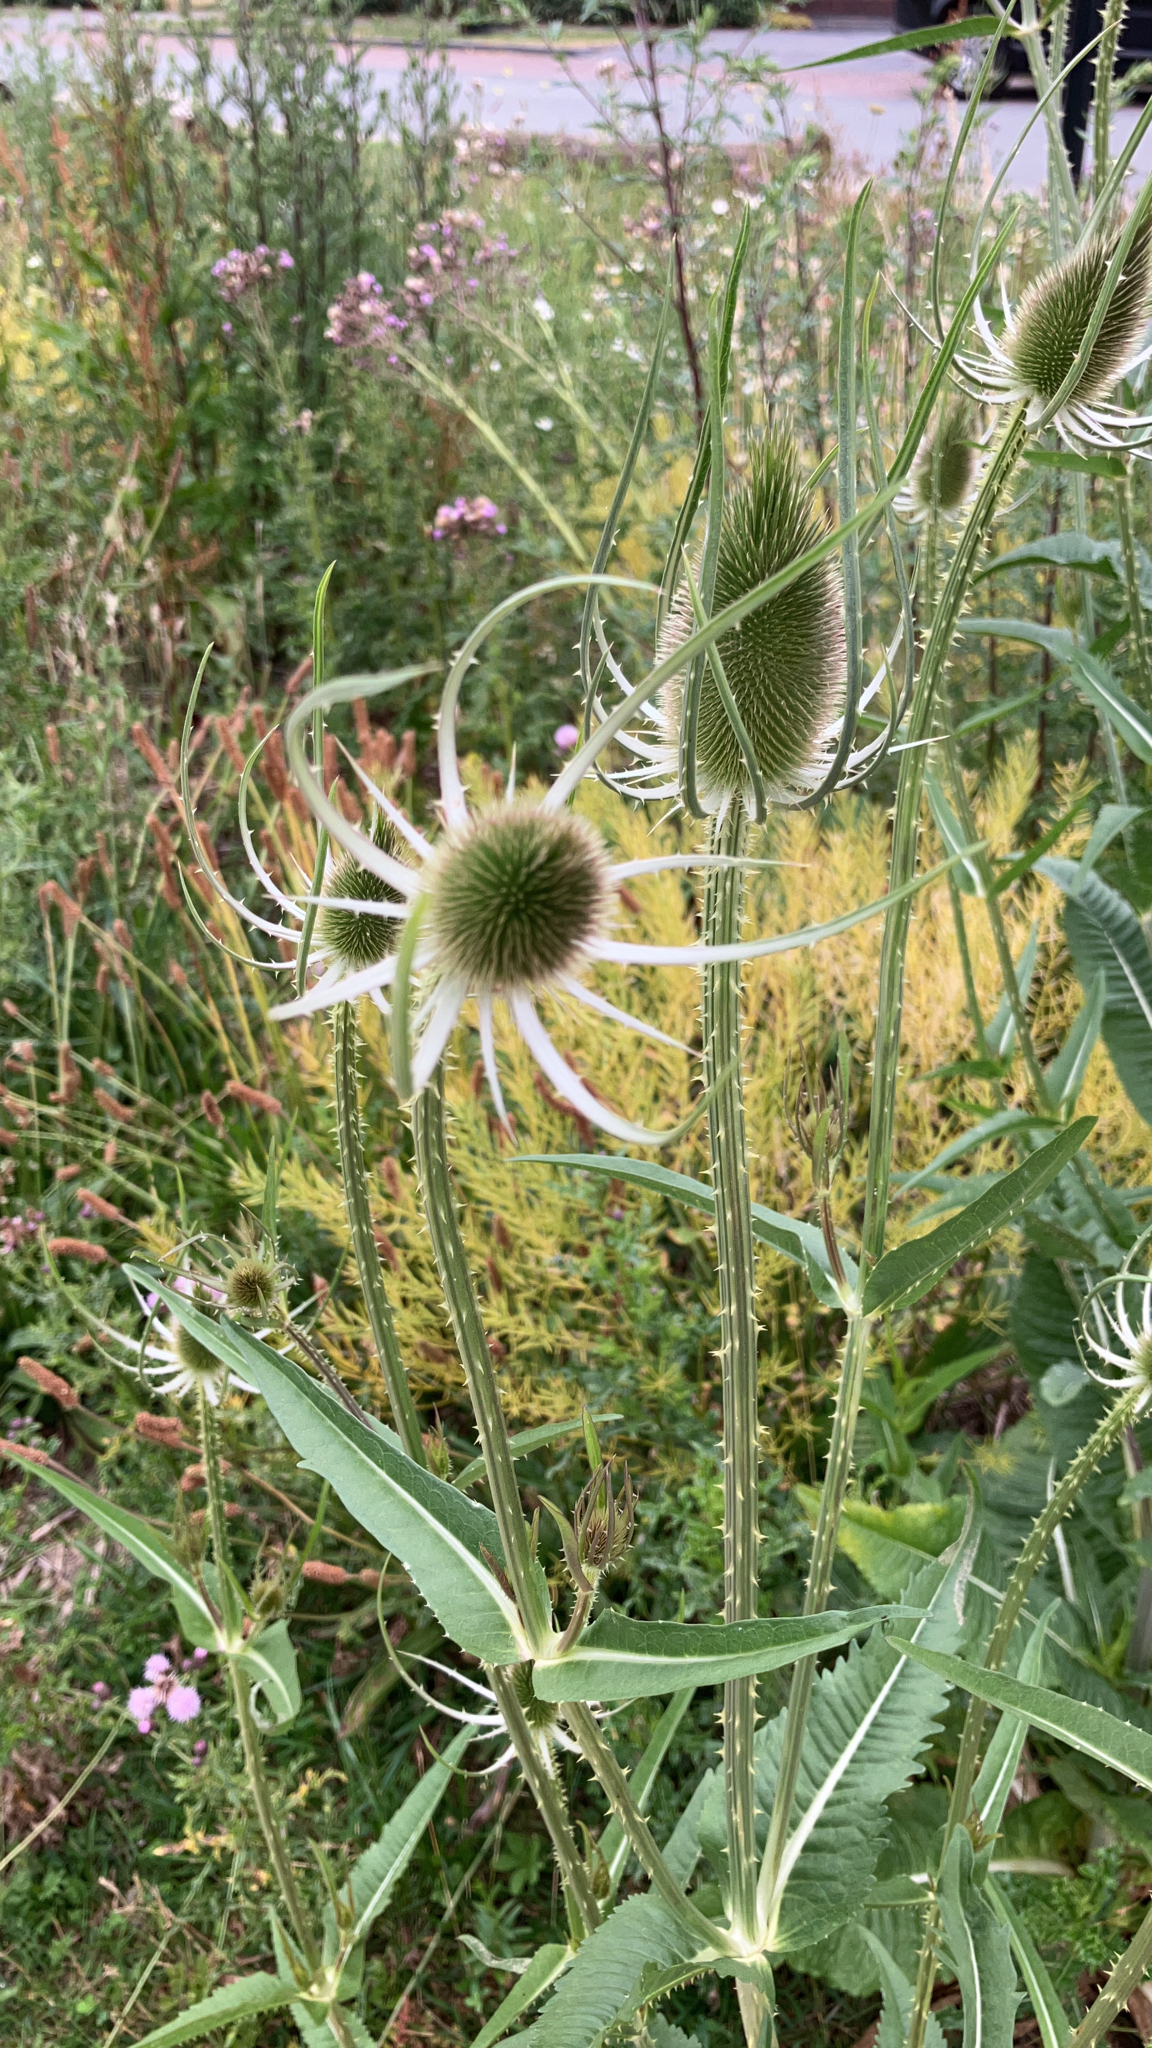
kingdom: Plantae
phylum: Tracheophyta
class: Magnoliopsida
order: Dipsacales
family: Caprifoliaceae
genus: Dipsacus
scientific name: Dipsacus fullonum
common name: Teasel
